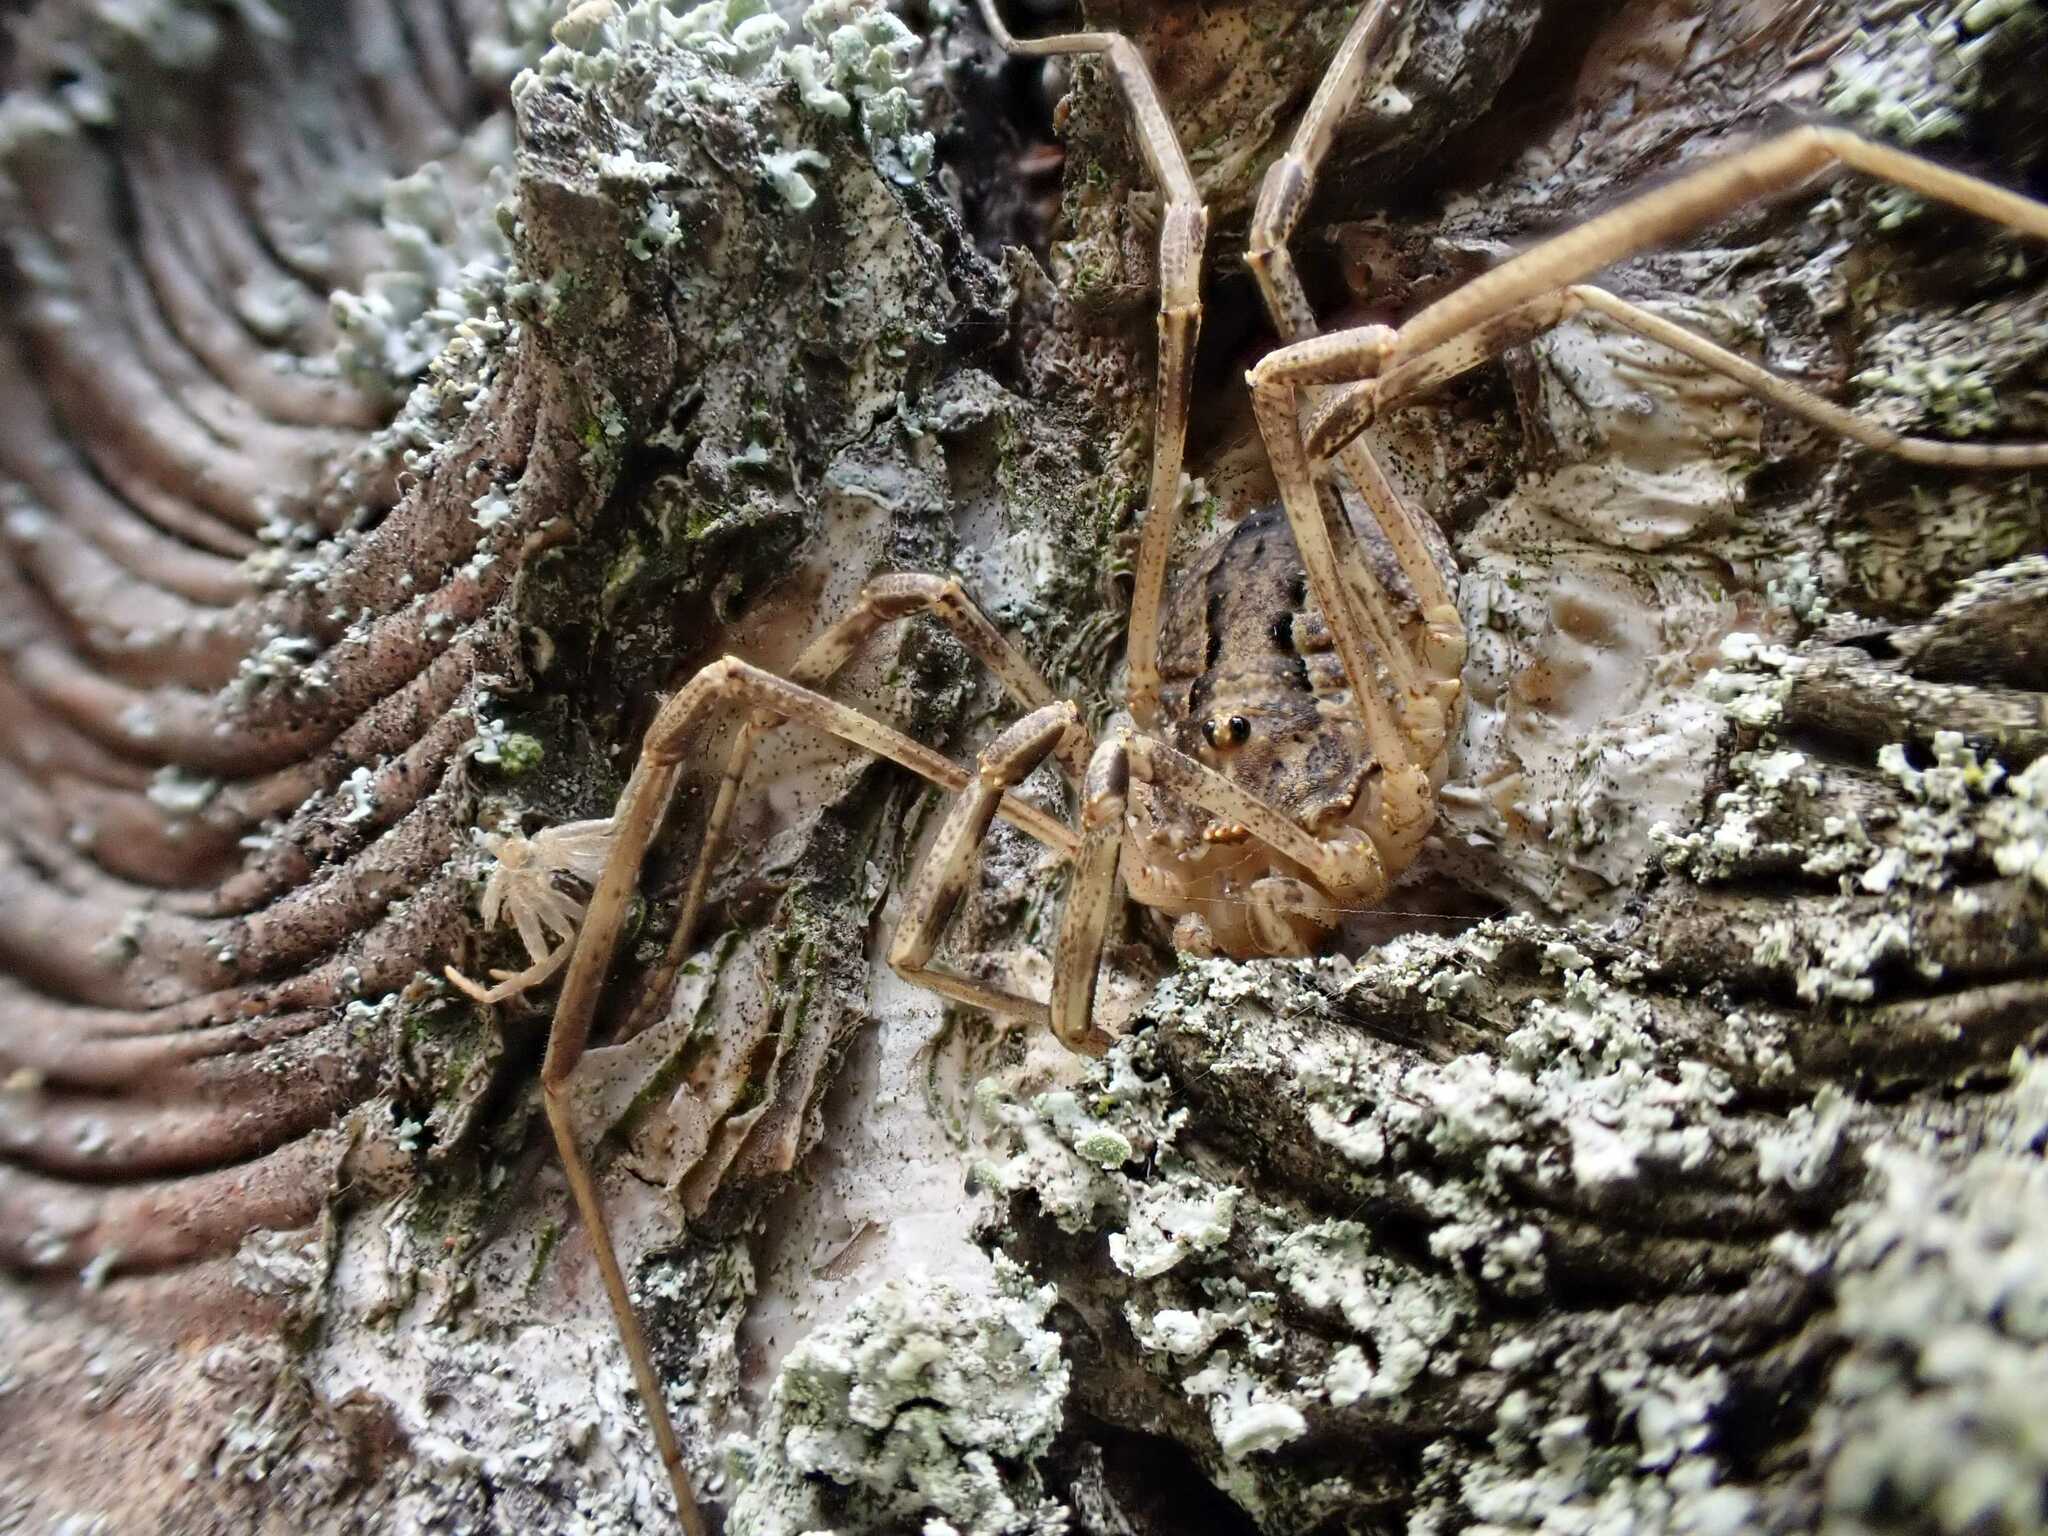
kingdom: Animalia
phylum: Arthropoda
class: Arachnida
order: Opiliones
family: Phalangiidae
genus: Odiellus
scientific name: Odiellus spinosus
